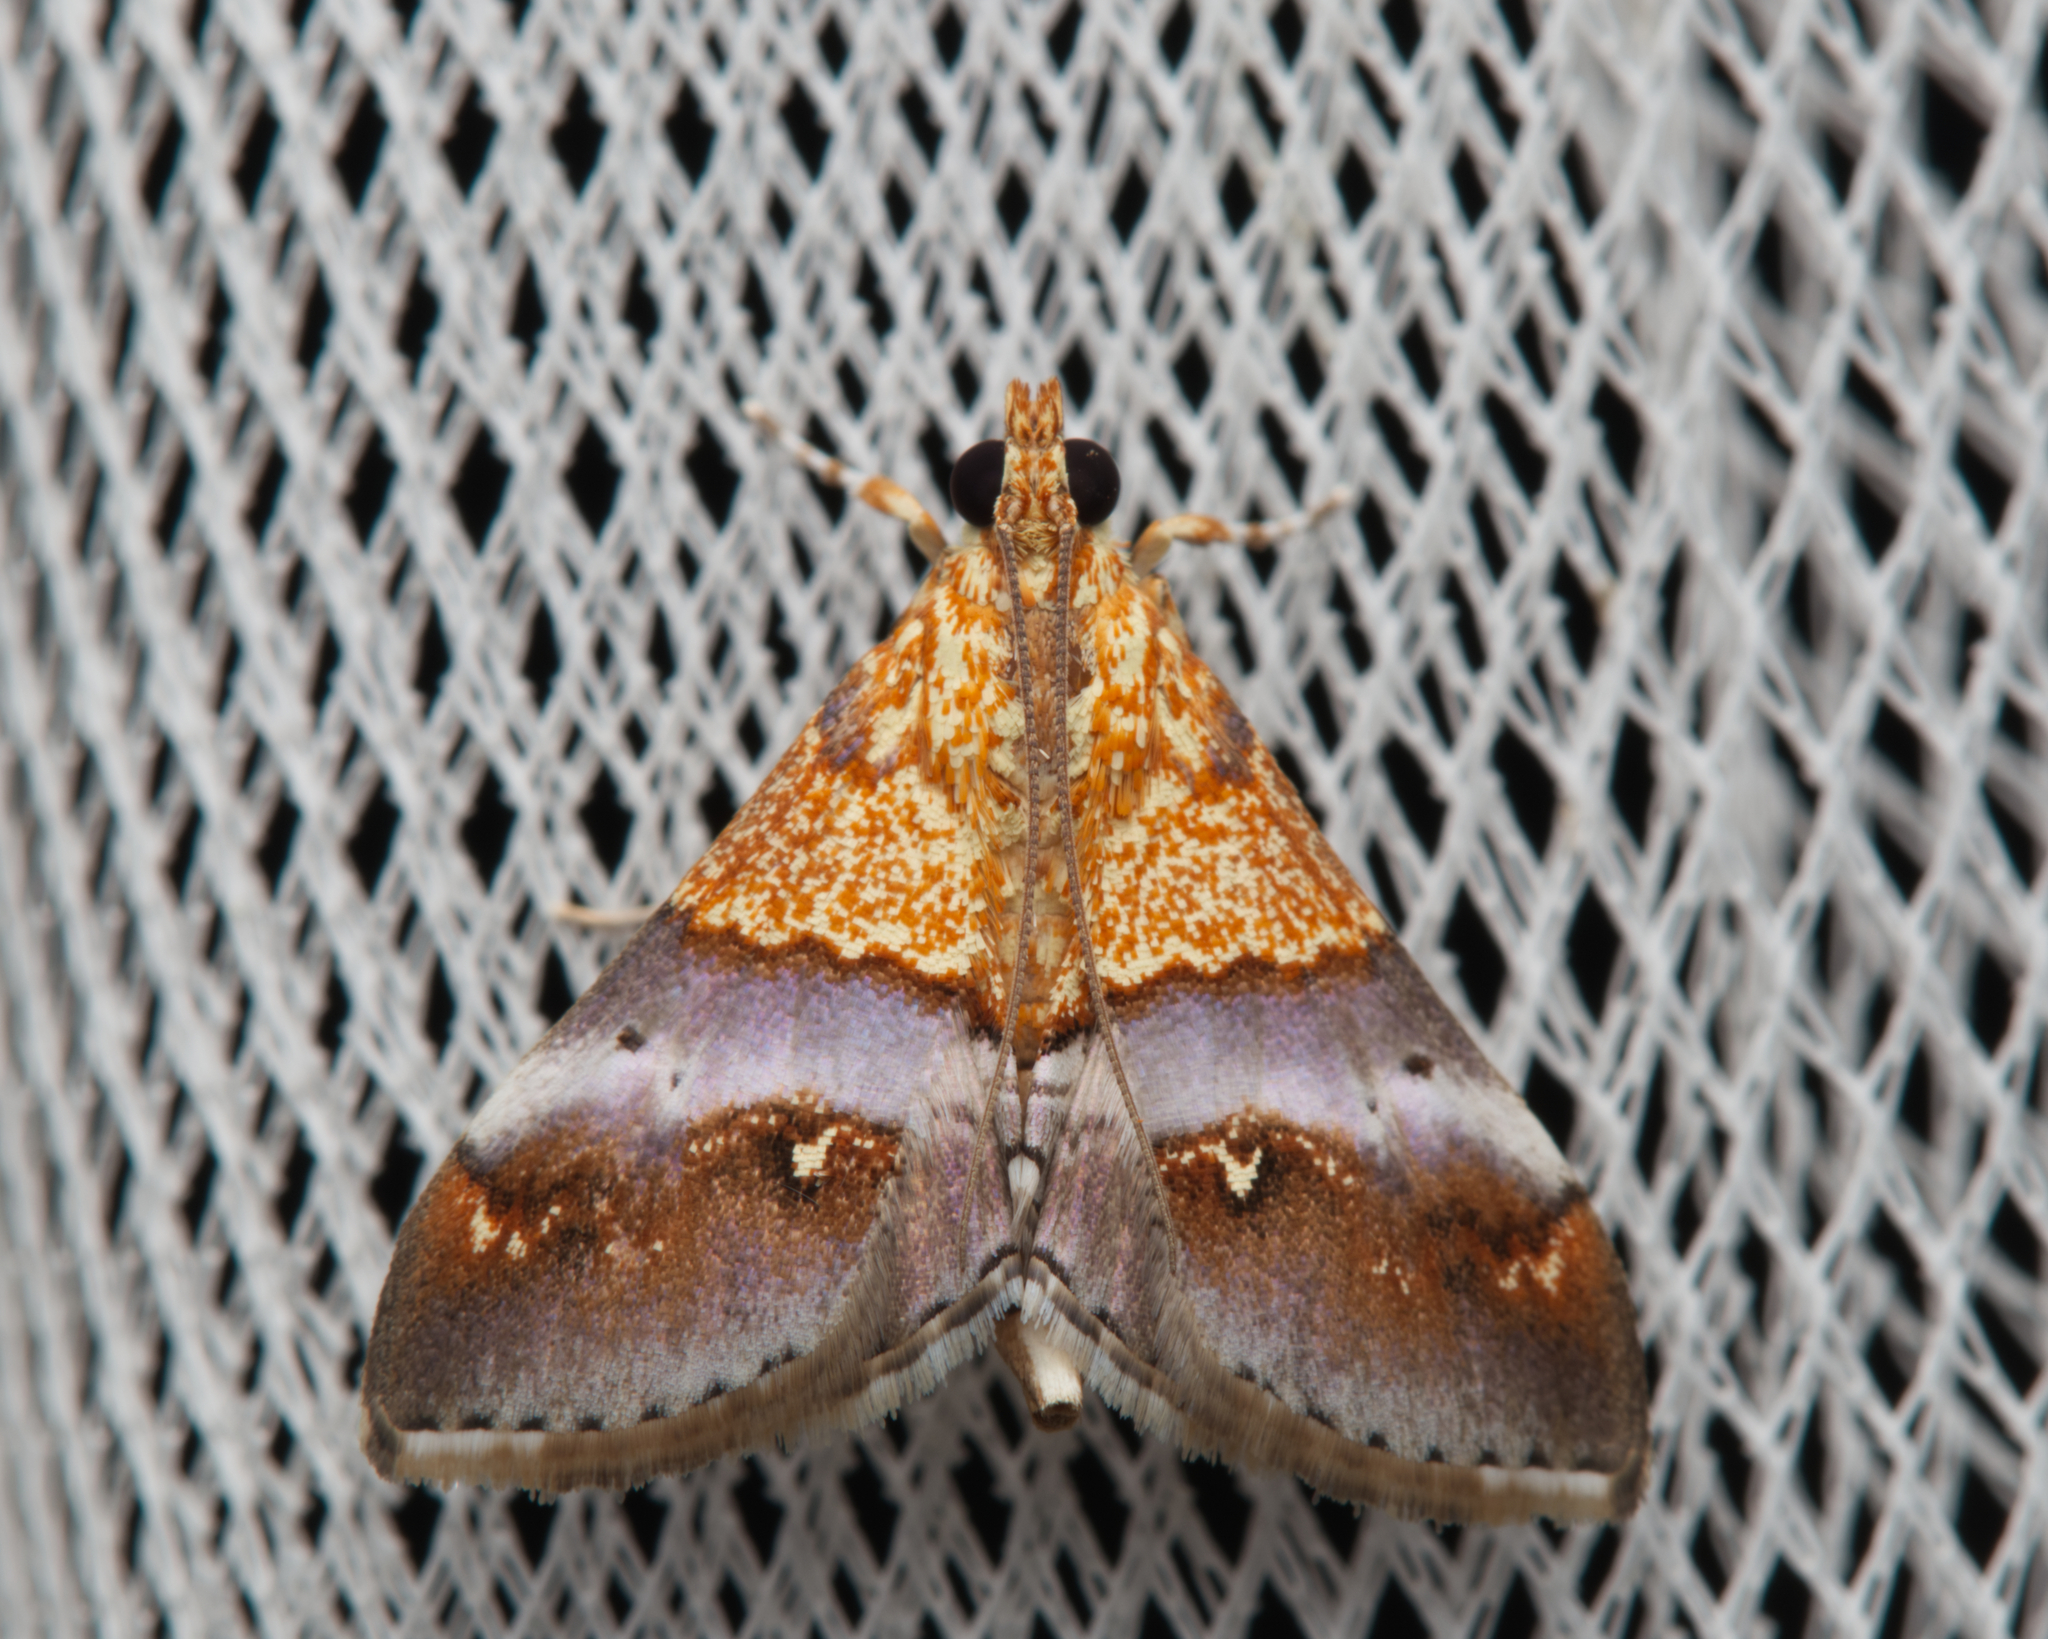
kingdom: Animalia
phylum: Arthropoda
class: Insecta
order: Lepidoptera
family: Crambidae
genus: Agrotera
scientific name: Agrotera Tetracona amathealis
